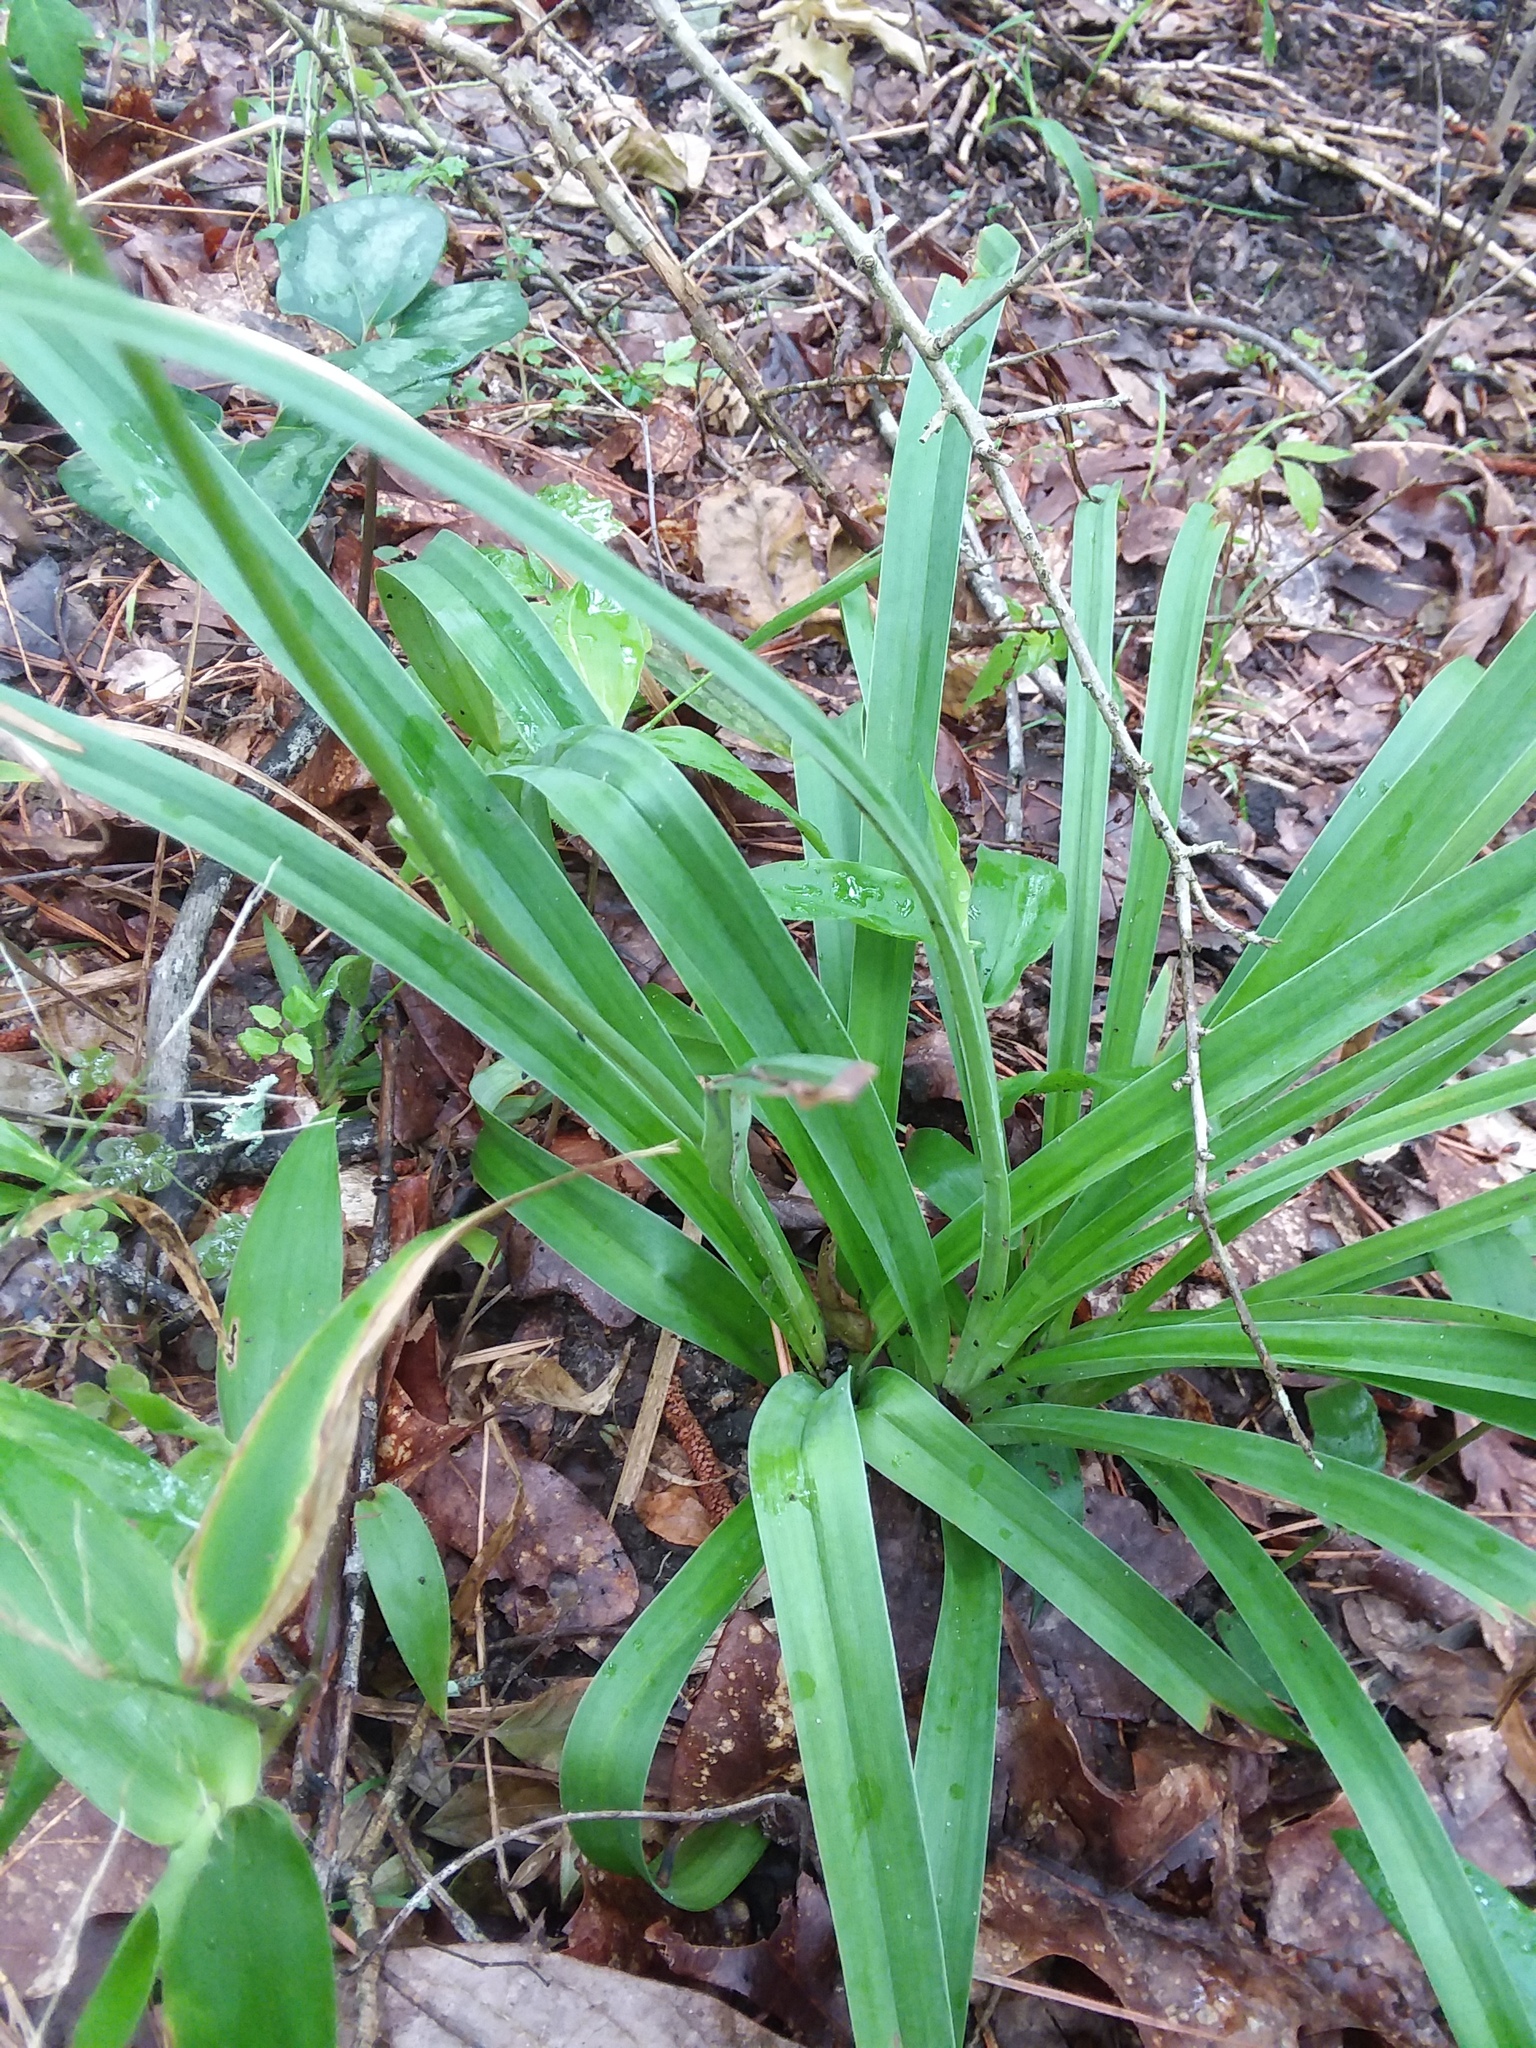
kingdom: Plantae
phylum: Tracheophyta
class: Liliopsida
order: Liliales
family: Melanthiaceae
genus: Amianthium
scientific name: Amianthium muscitoxicum
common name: Fly-poison
